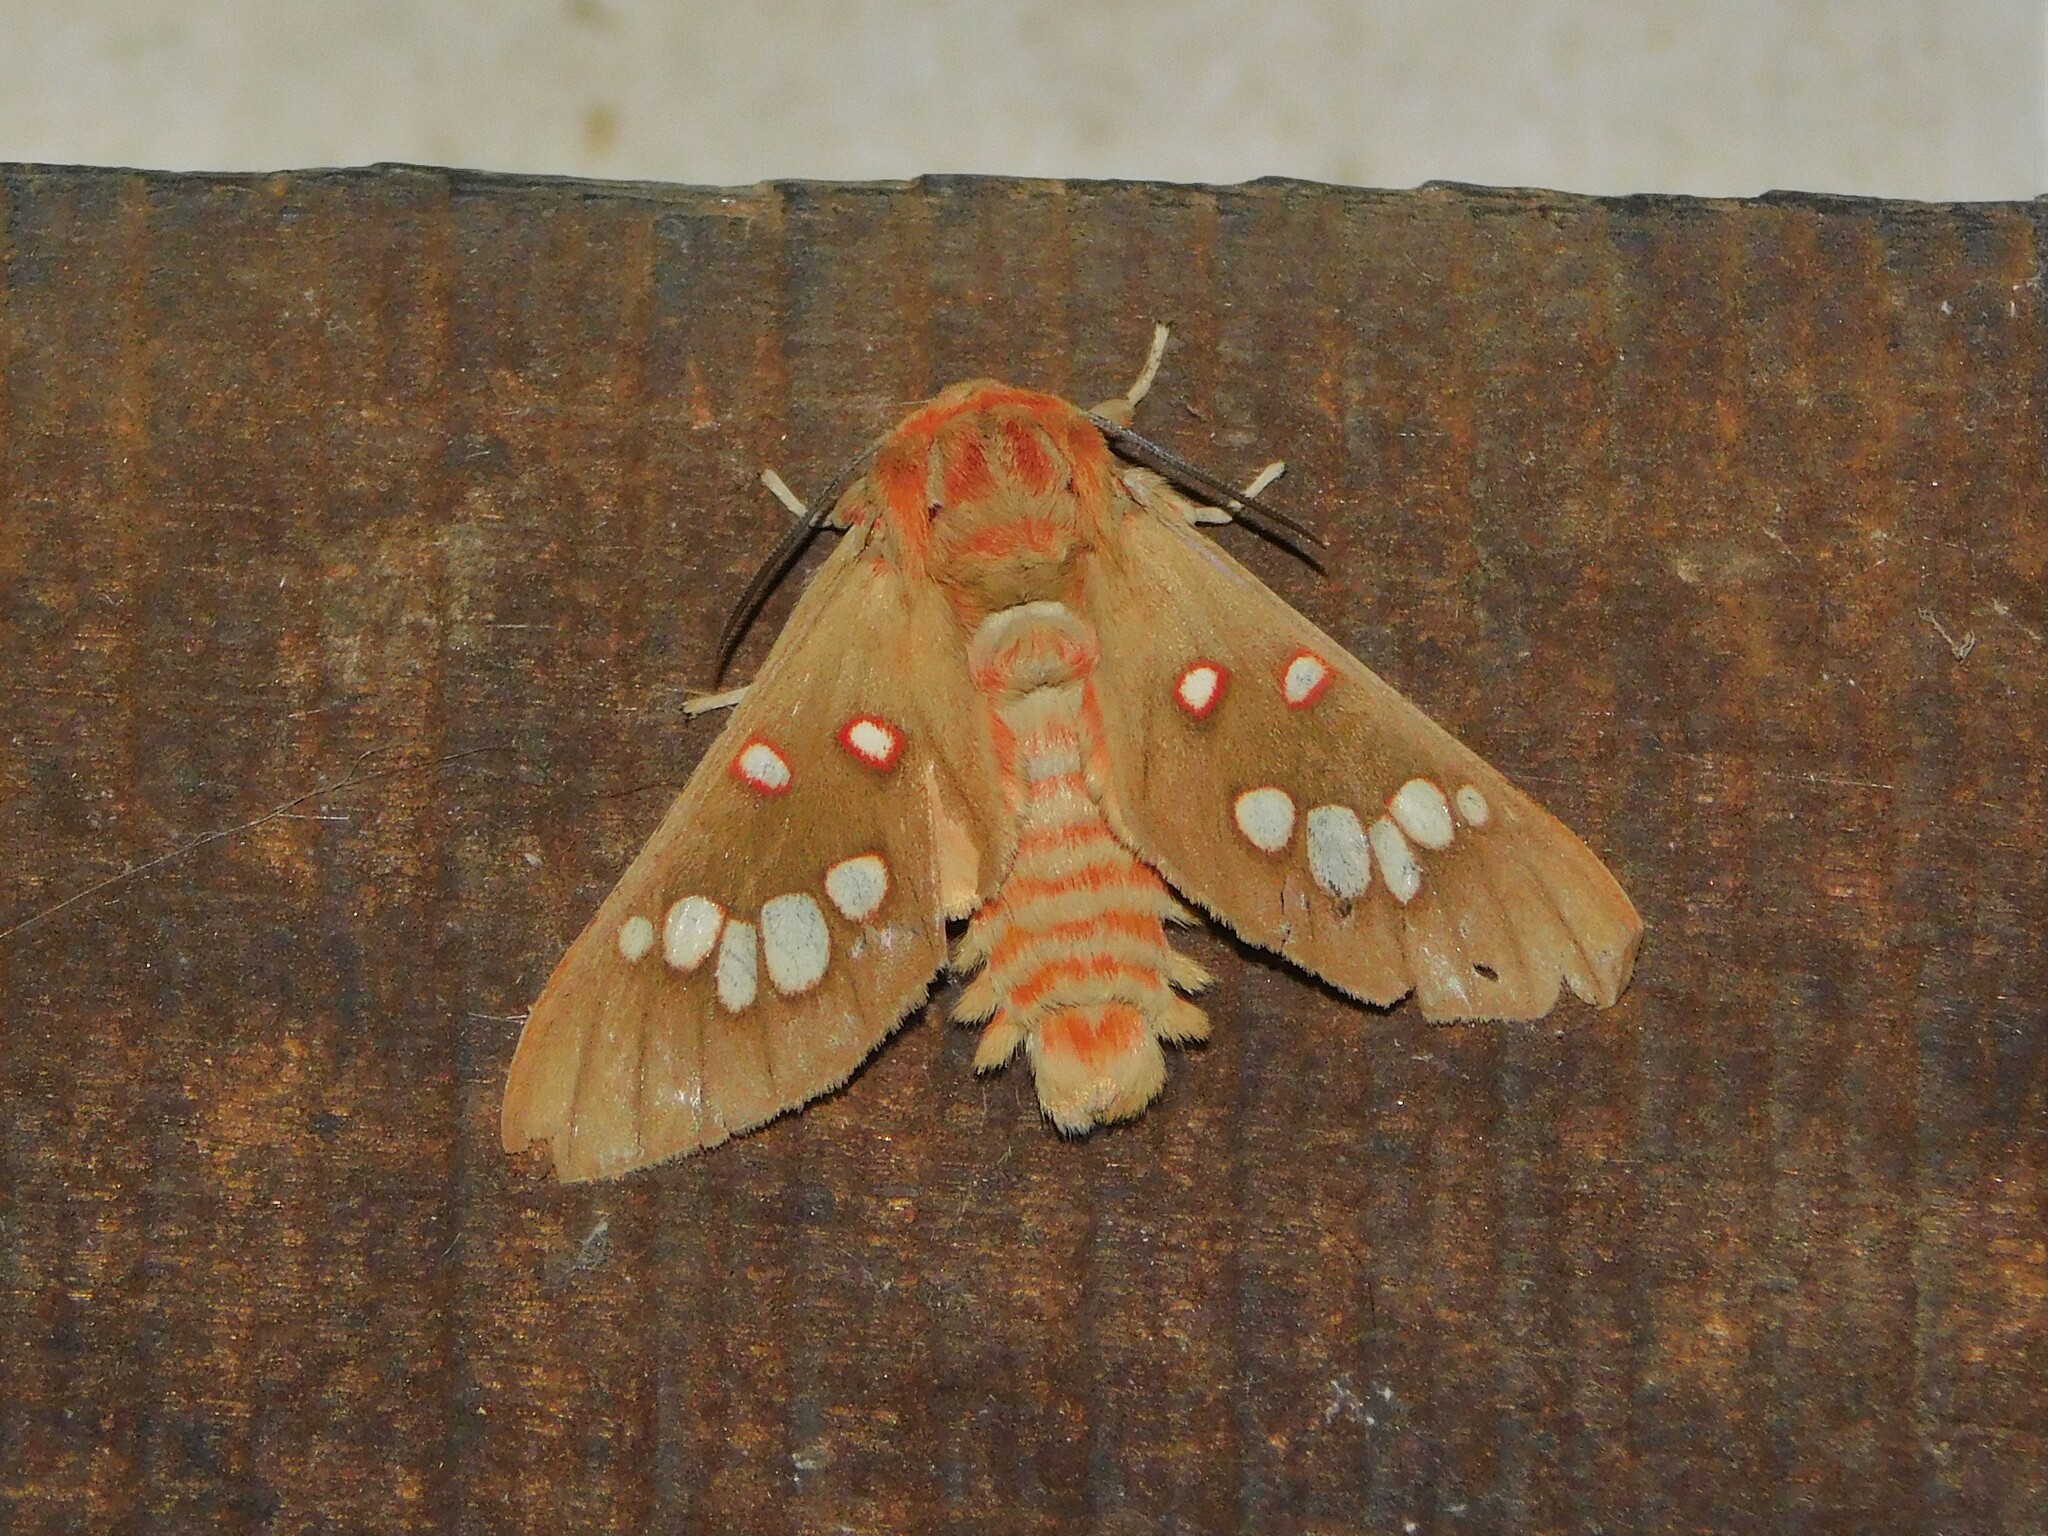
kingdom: Animalia
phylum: Arthropoda
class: Insecta
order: Lepidoptera
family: Erebidae
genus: Balacra
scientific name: Balacra preussi
